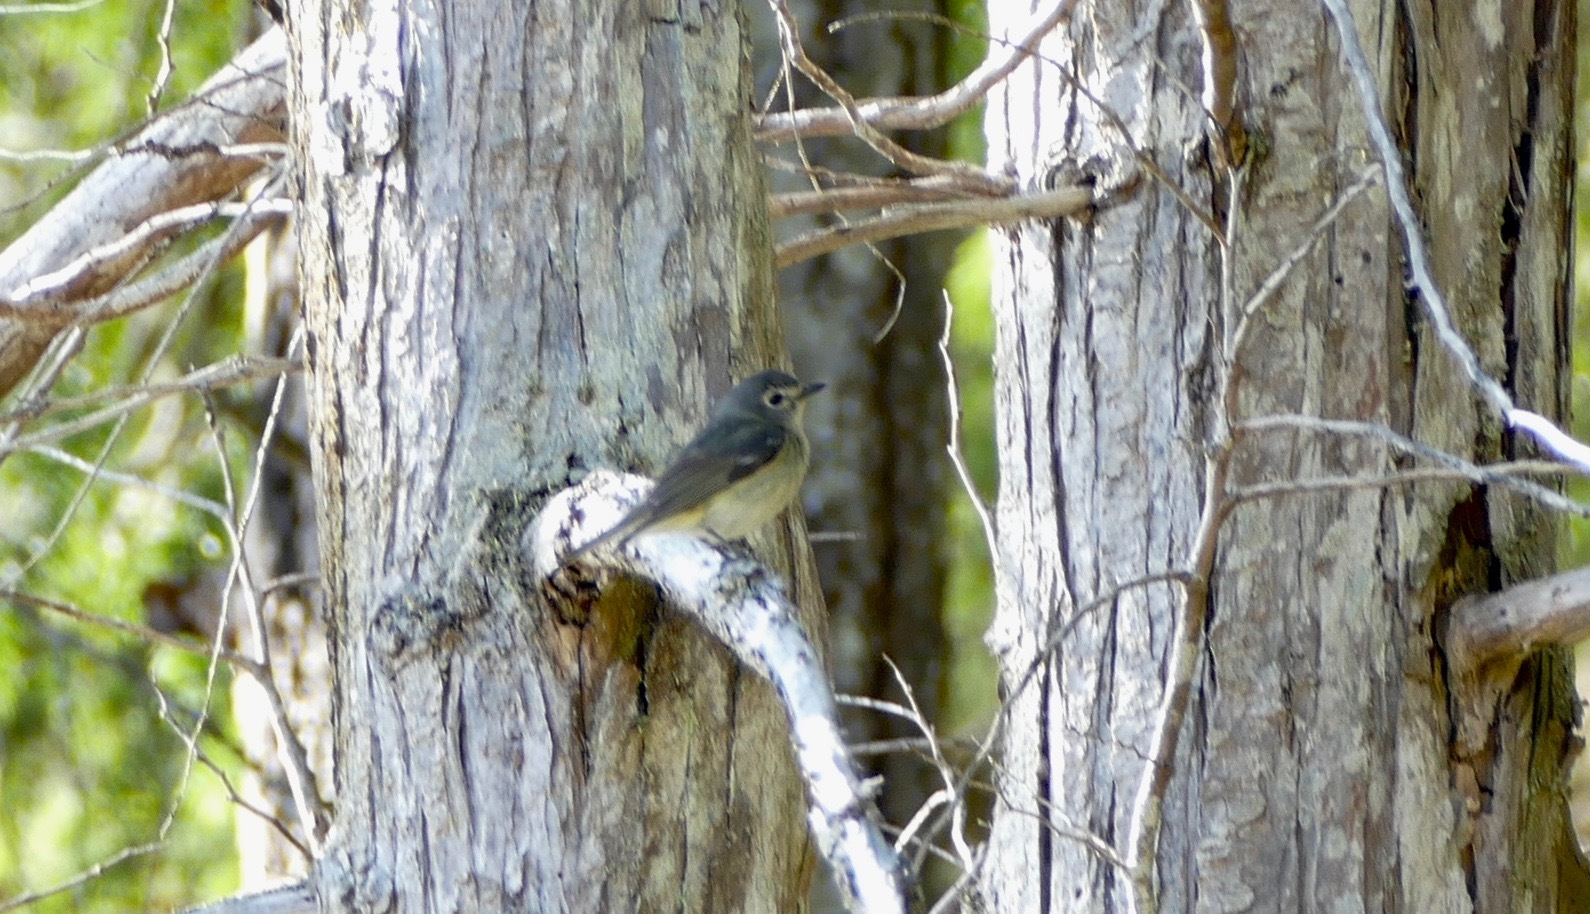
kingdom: Animalia
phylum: Chordata
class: Aves
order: Passeriformes
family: Vireonidae
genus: Vireo
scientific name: Vireo cassinii
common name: Cassin's vireo
